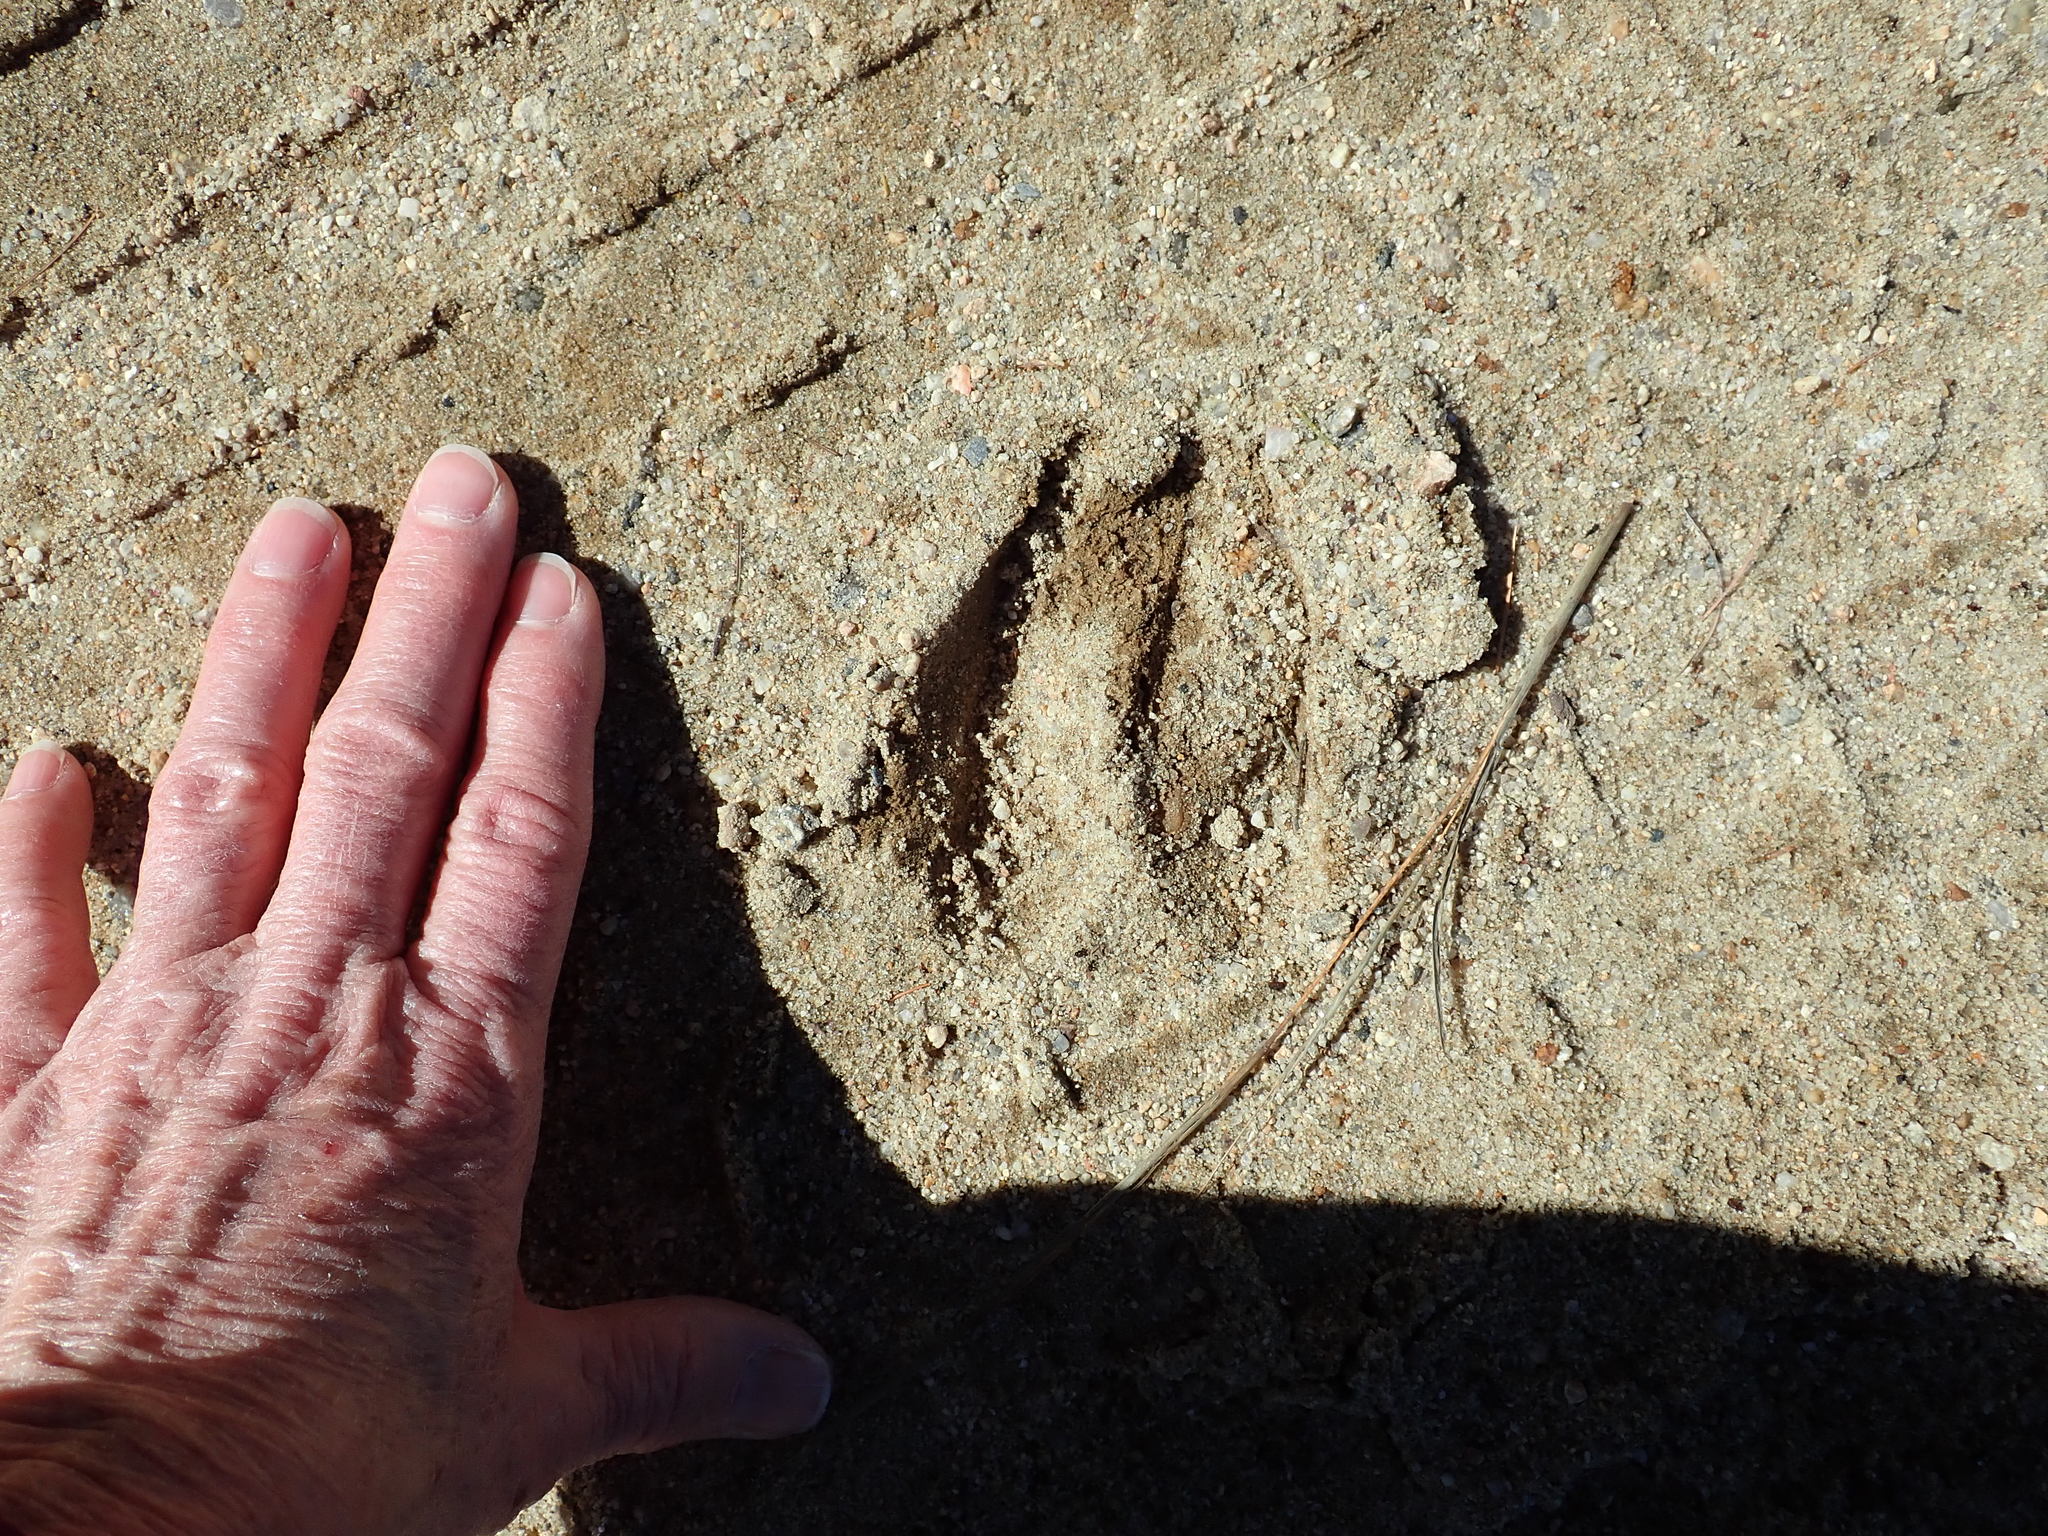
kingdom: Animalia
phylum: Chordata
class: Mammalia
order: Artiodactyla
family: Cervidae
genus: Odocoileus
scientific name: Odocoileus virginianus
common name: White-tailed deer
